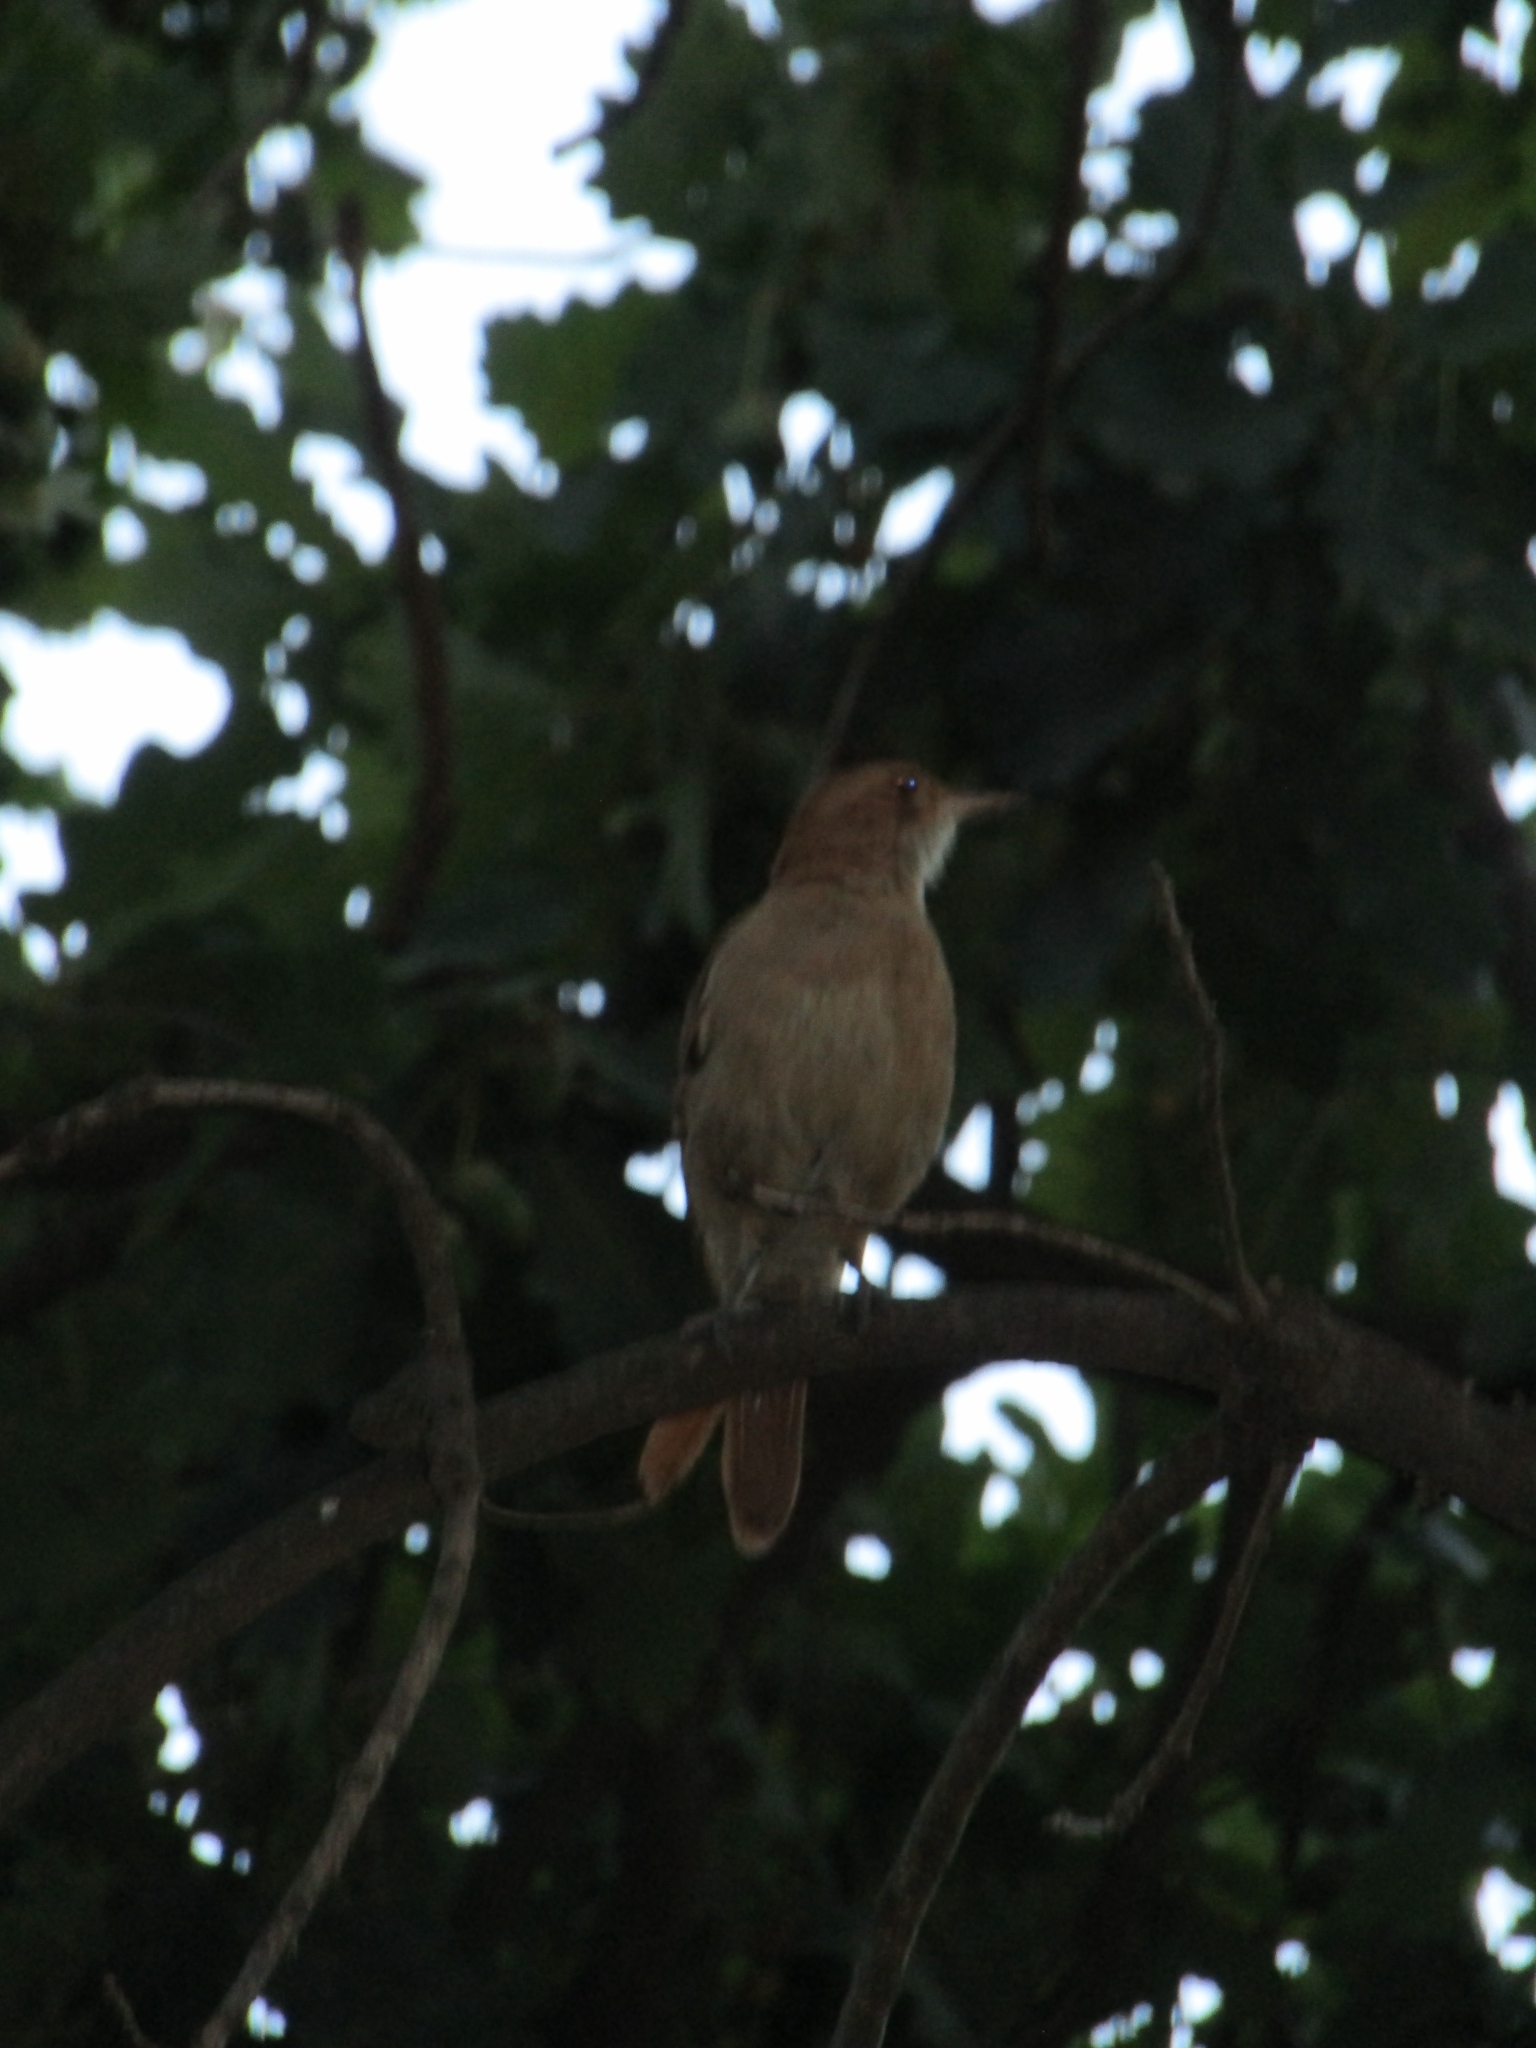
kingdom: Animalia
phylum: Chordata
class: Aves
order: Passeriformes
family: Furnariidae
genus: Furnarius
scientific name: Furnarius rufus
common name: Rufous hornero
